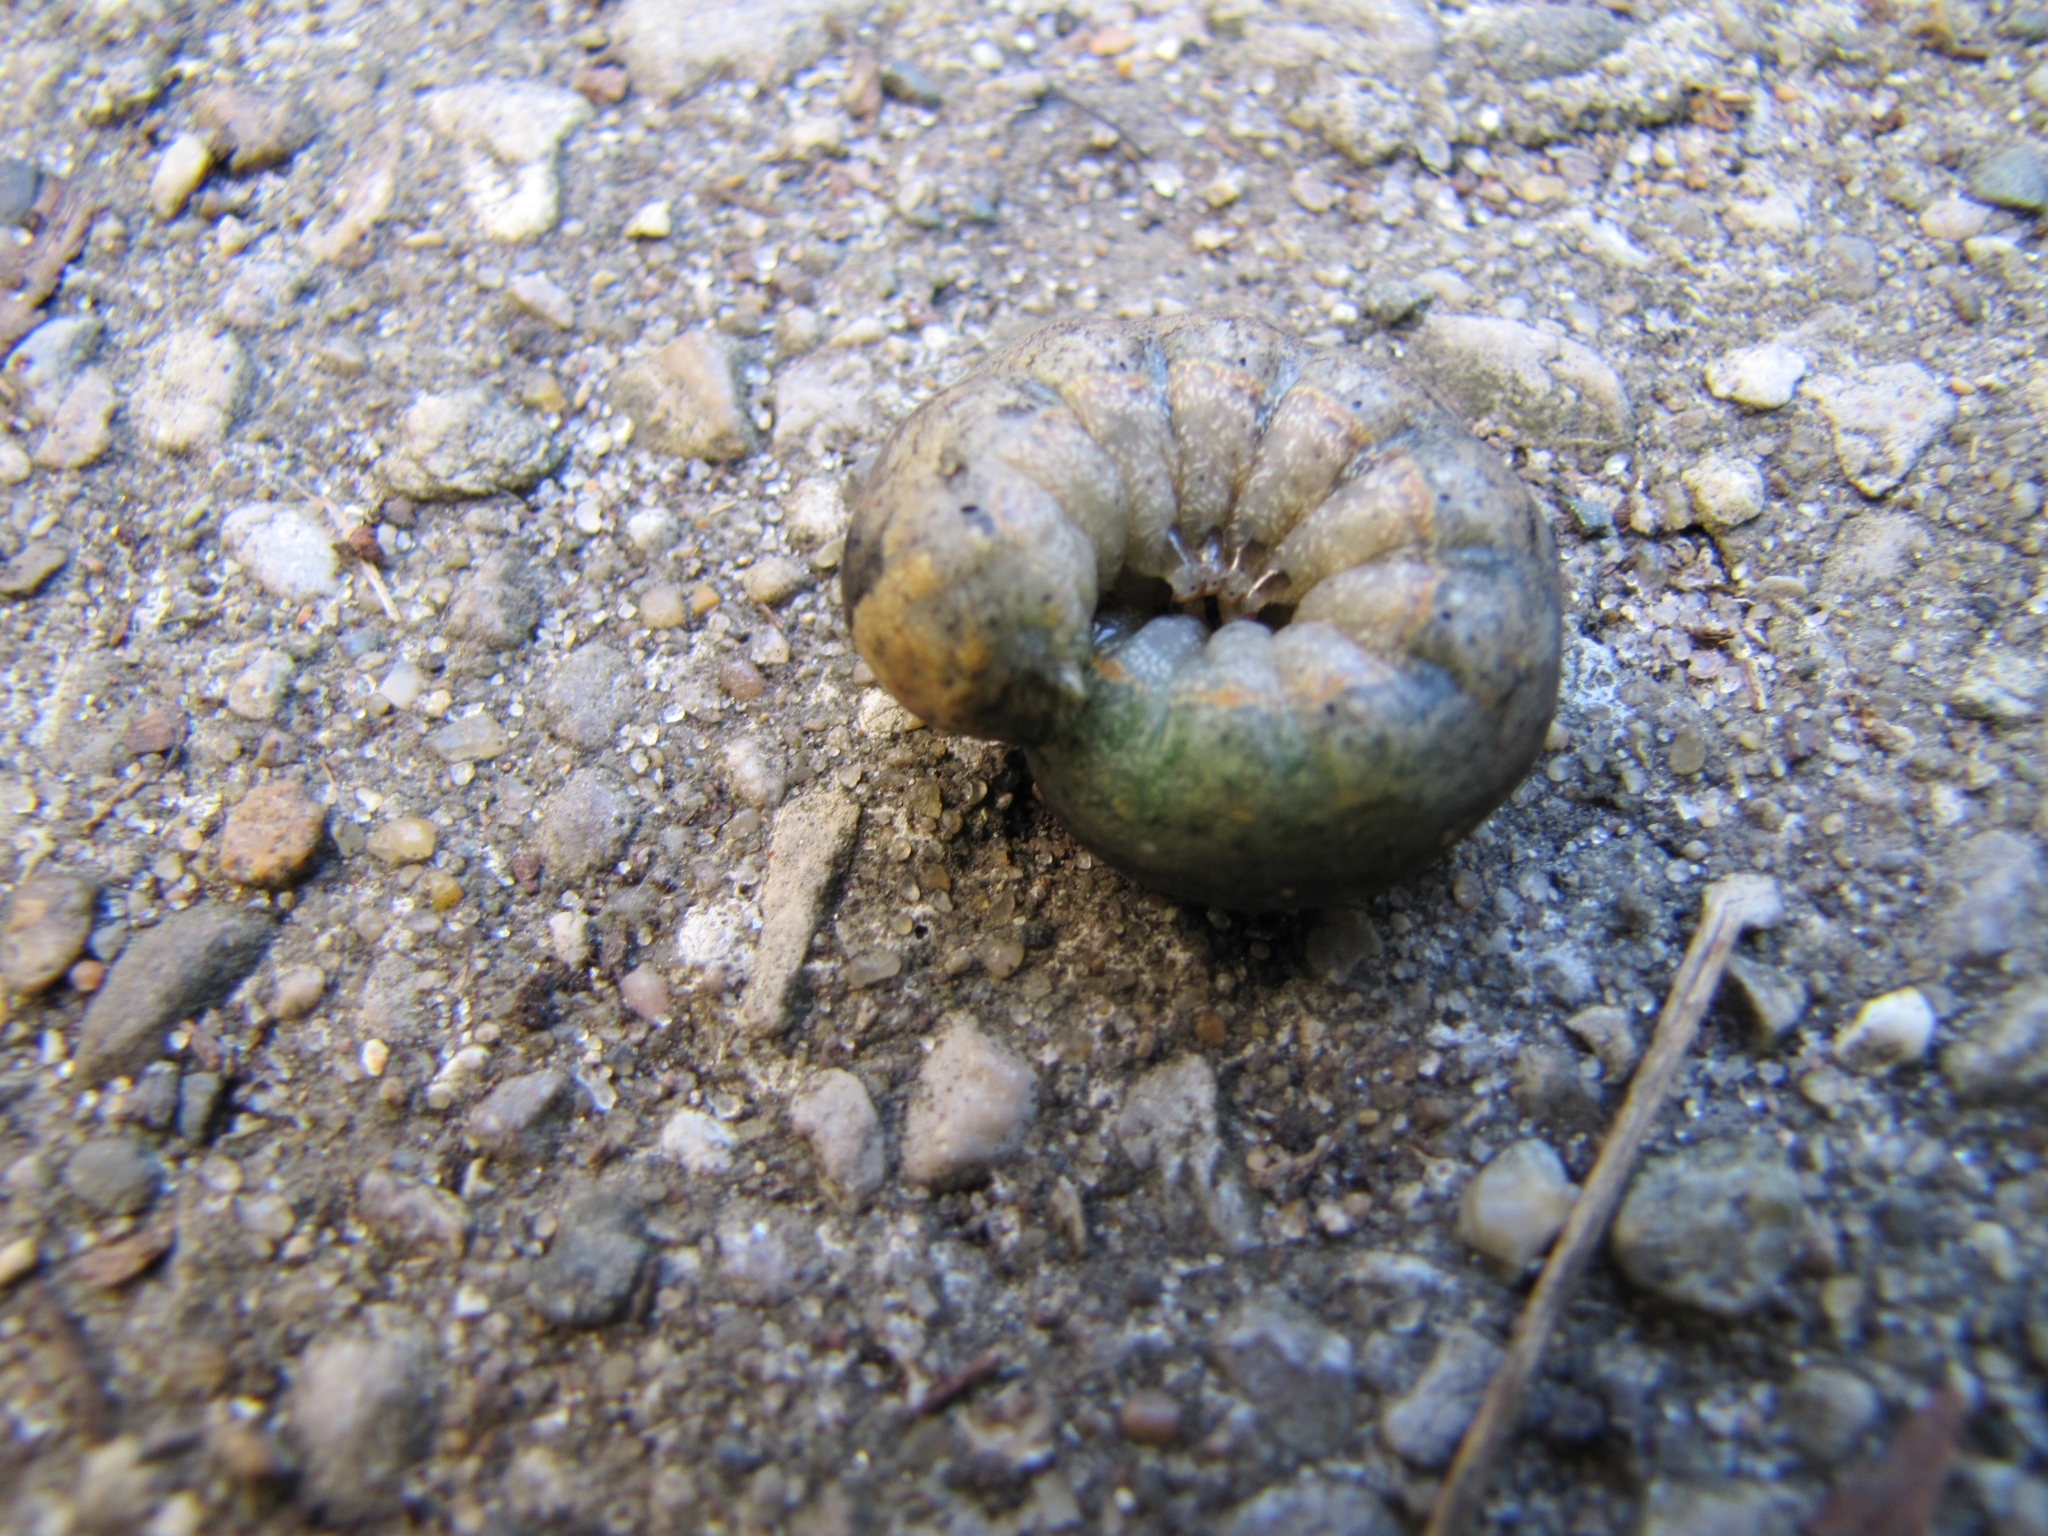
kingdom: Animalia
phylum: Arthropoda
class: Insecta
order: Lepidoptera
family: Noctuidae
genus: Peridroma
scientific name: Peridroma saucia
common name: Pearly underwing
